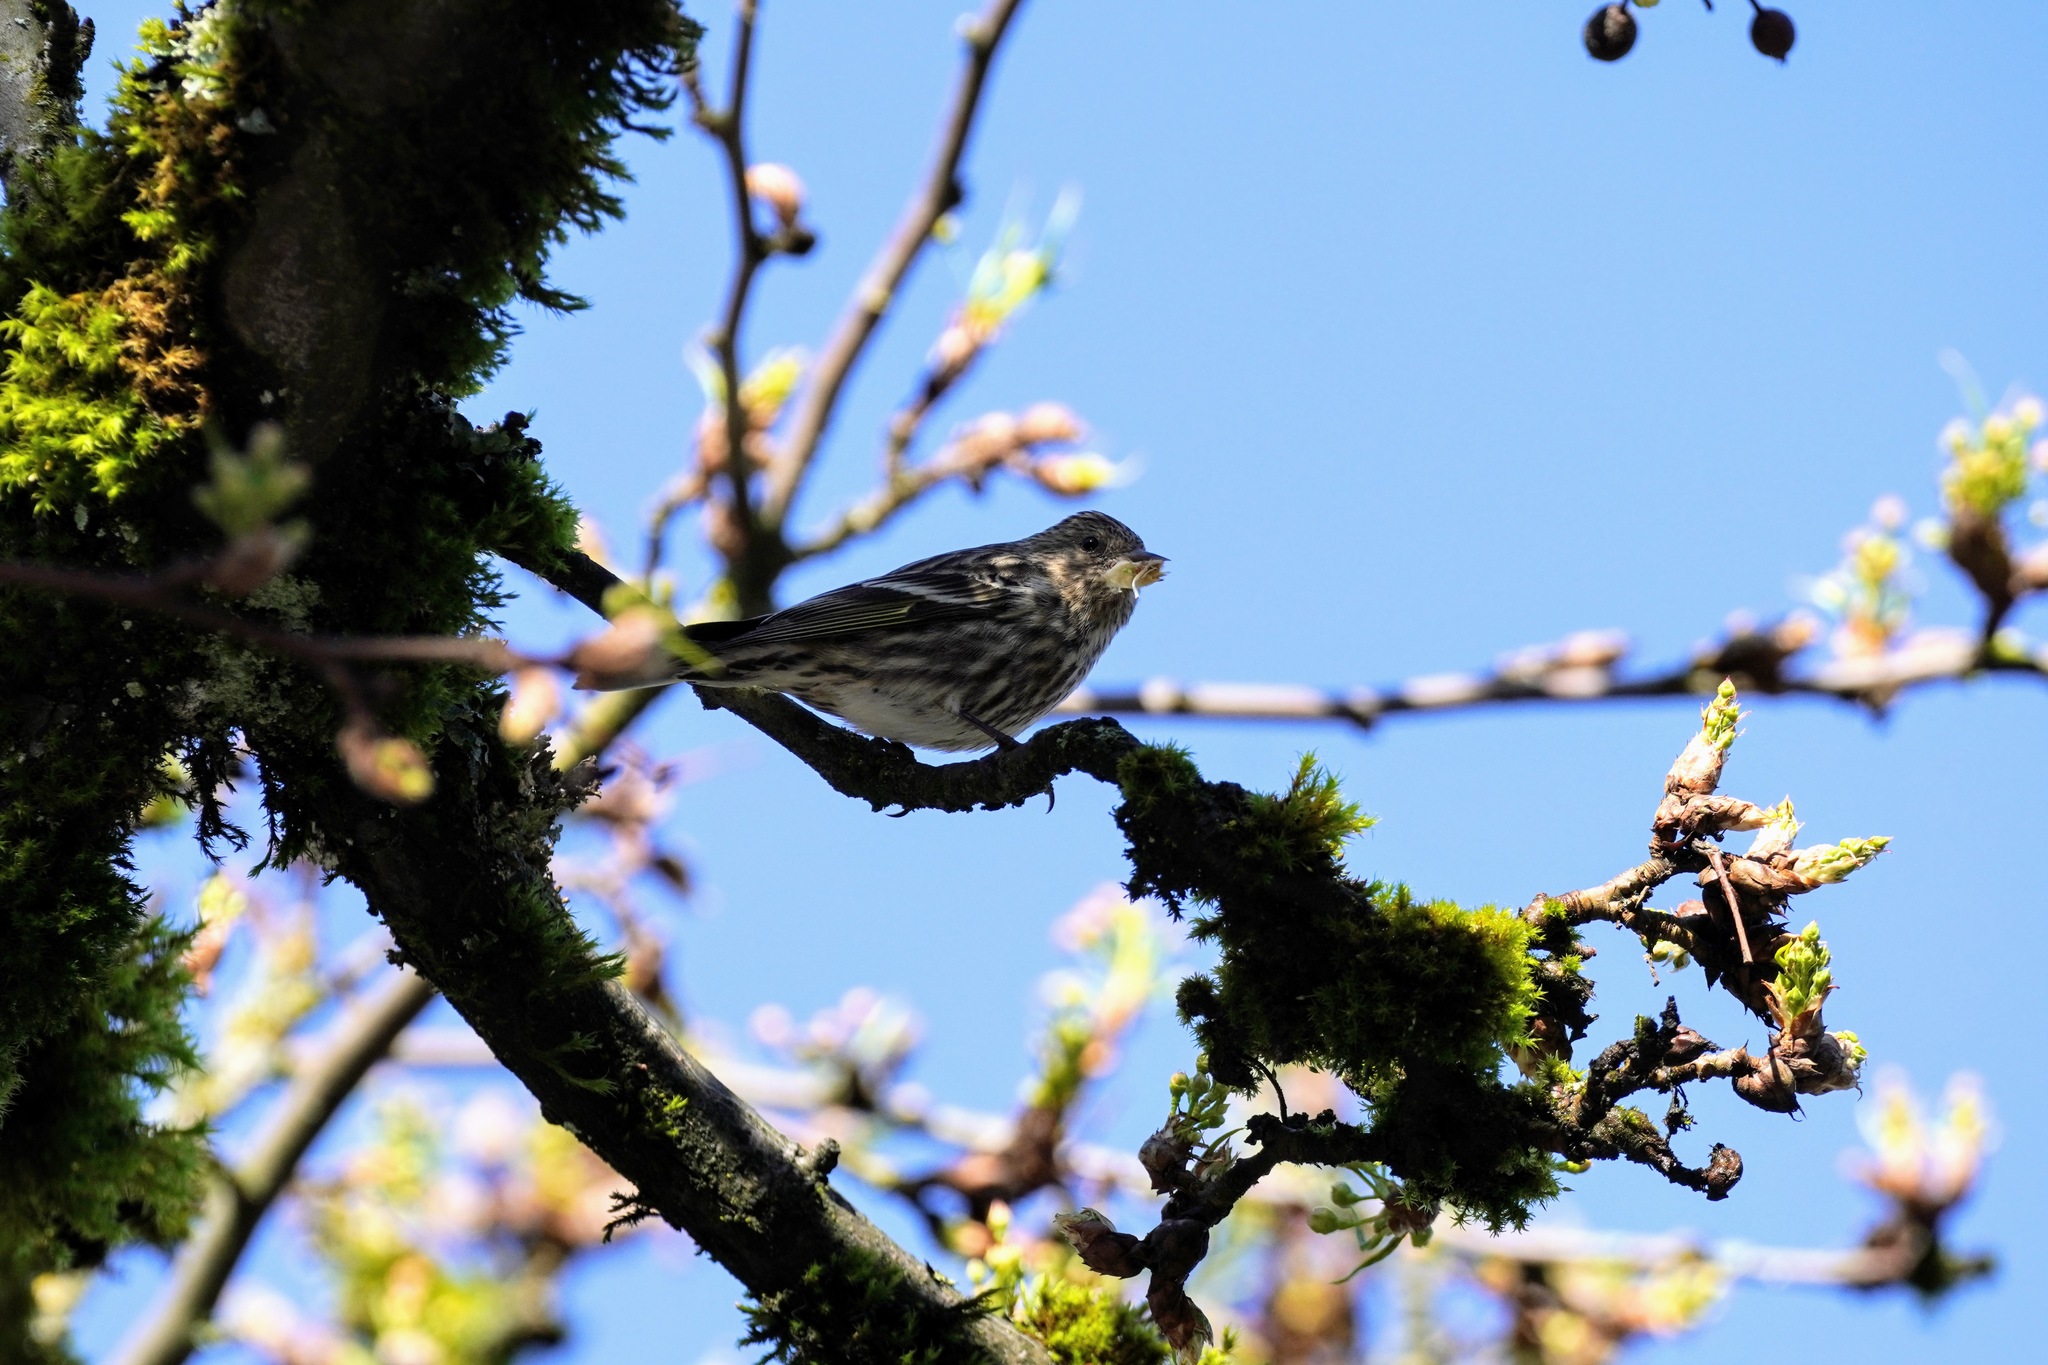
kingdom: Animalia
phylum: Chordata
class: Aves
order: Passeriformes
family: Fringillidae
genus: Spinus
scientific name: Spinus pinus
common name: Pine siskin
